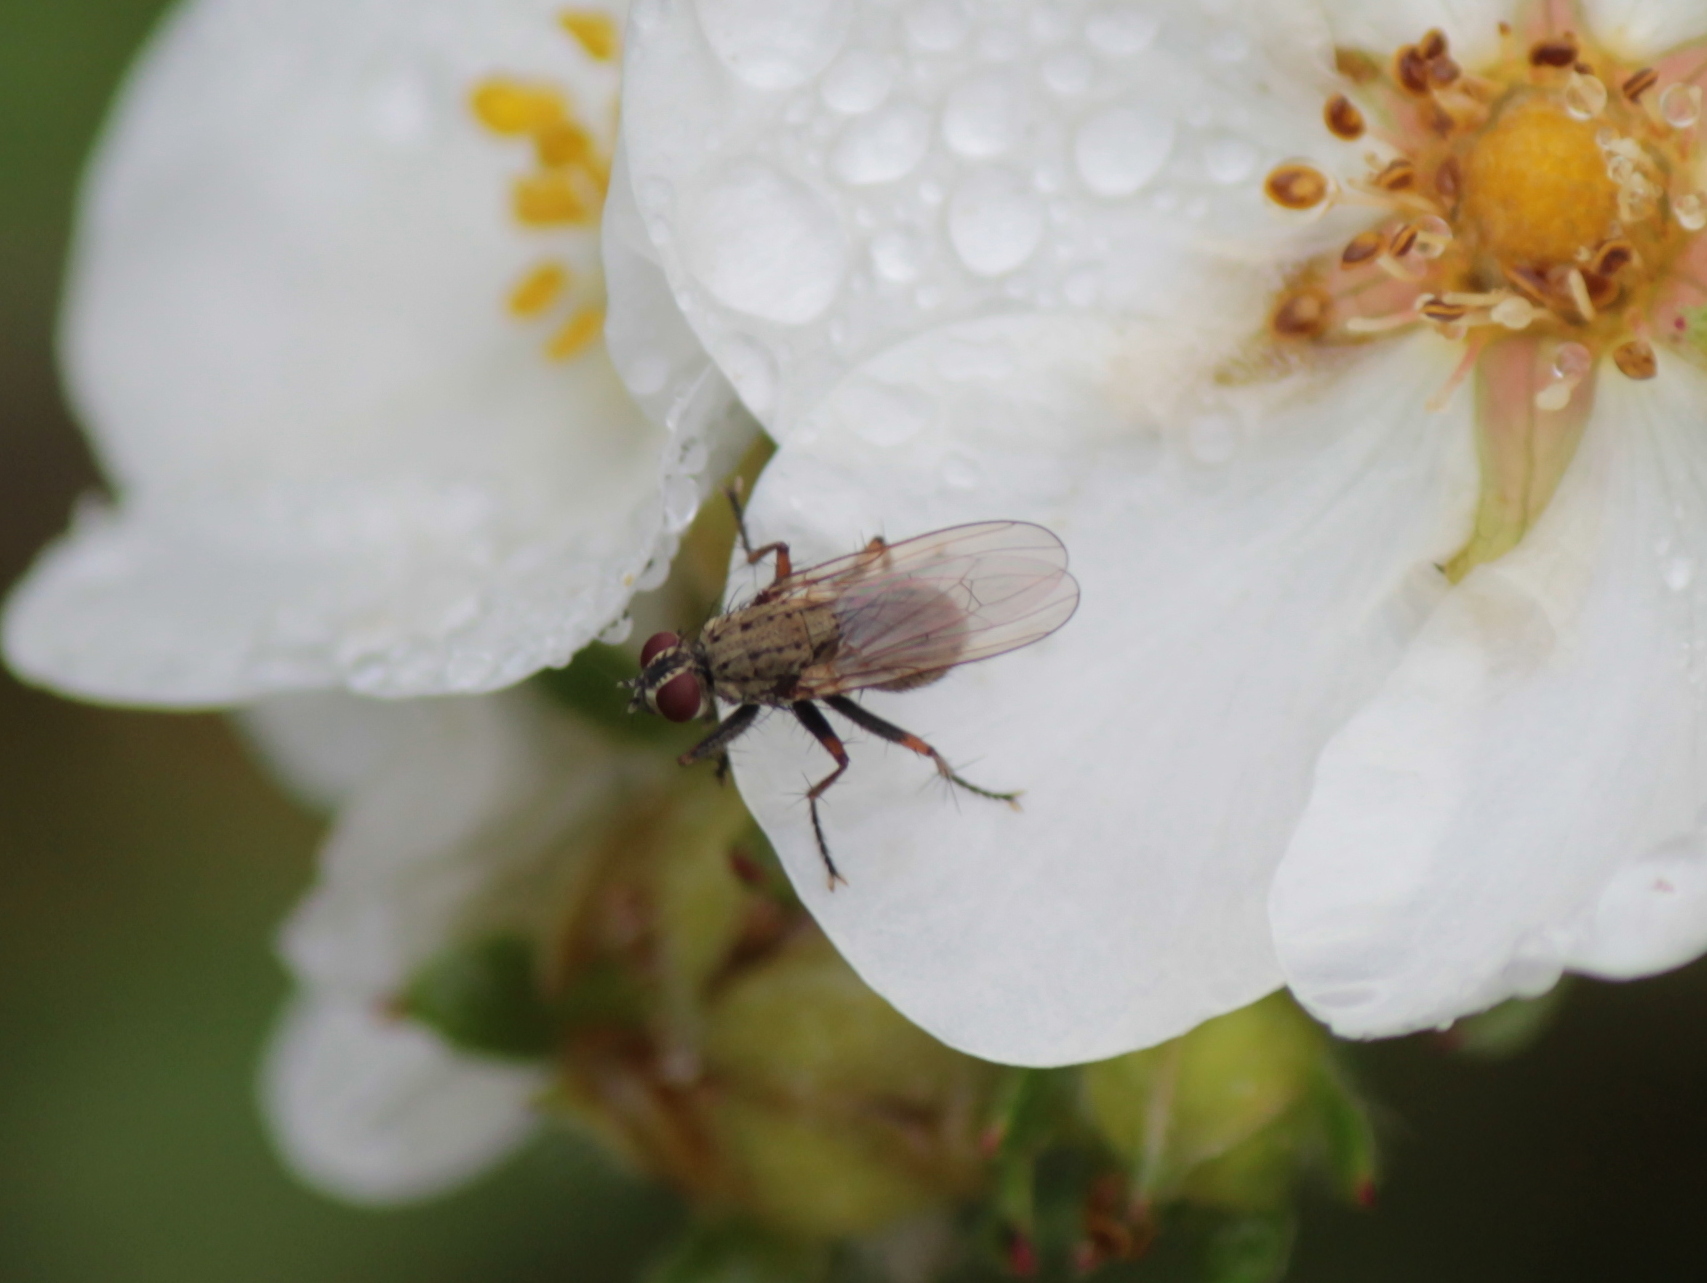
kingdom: Animalia
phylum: Arthropoda
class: Insecta
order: Diptera
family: Muscidae
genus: Coenosia
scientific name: Coenosia tigrina
